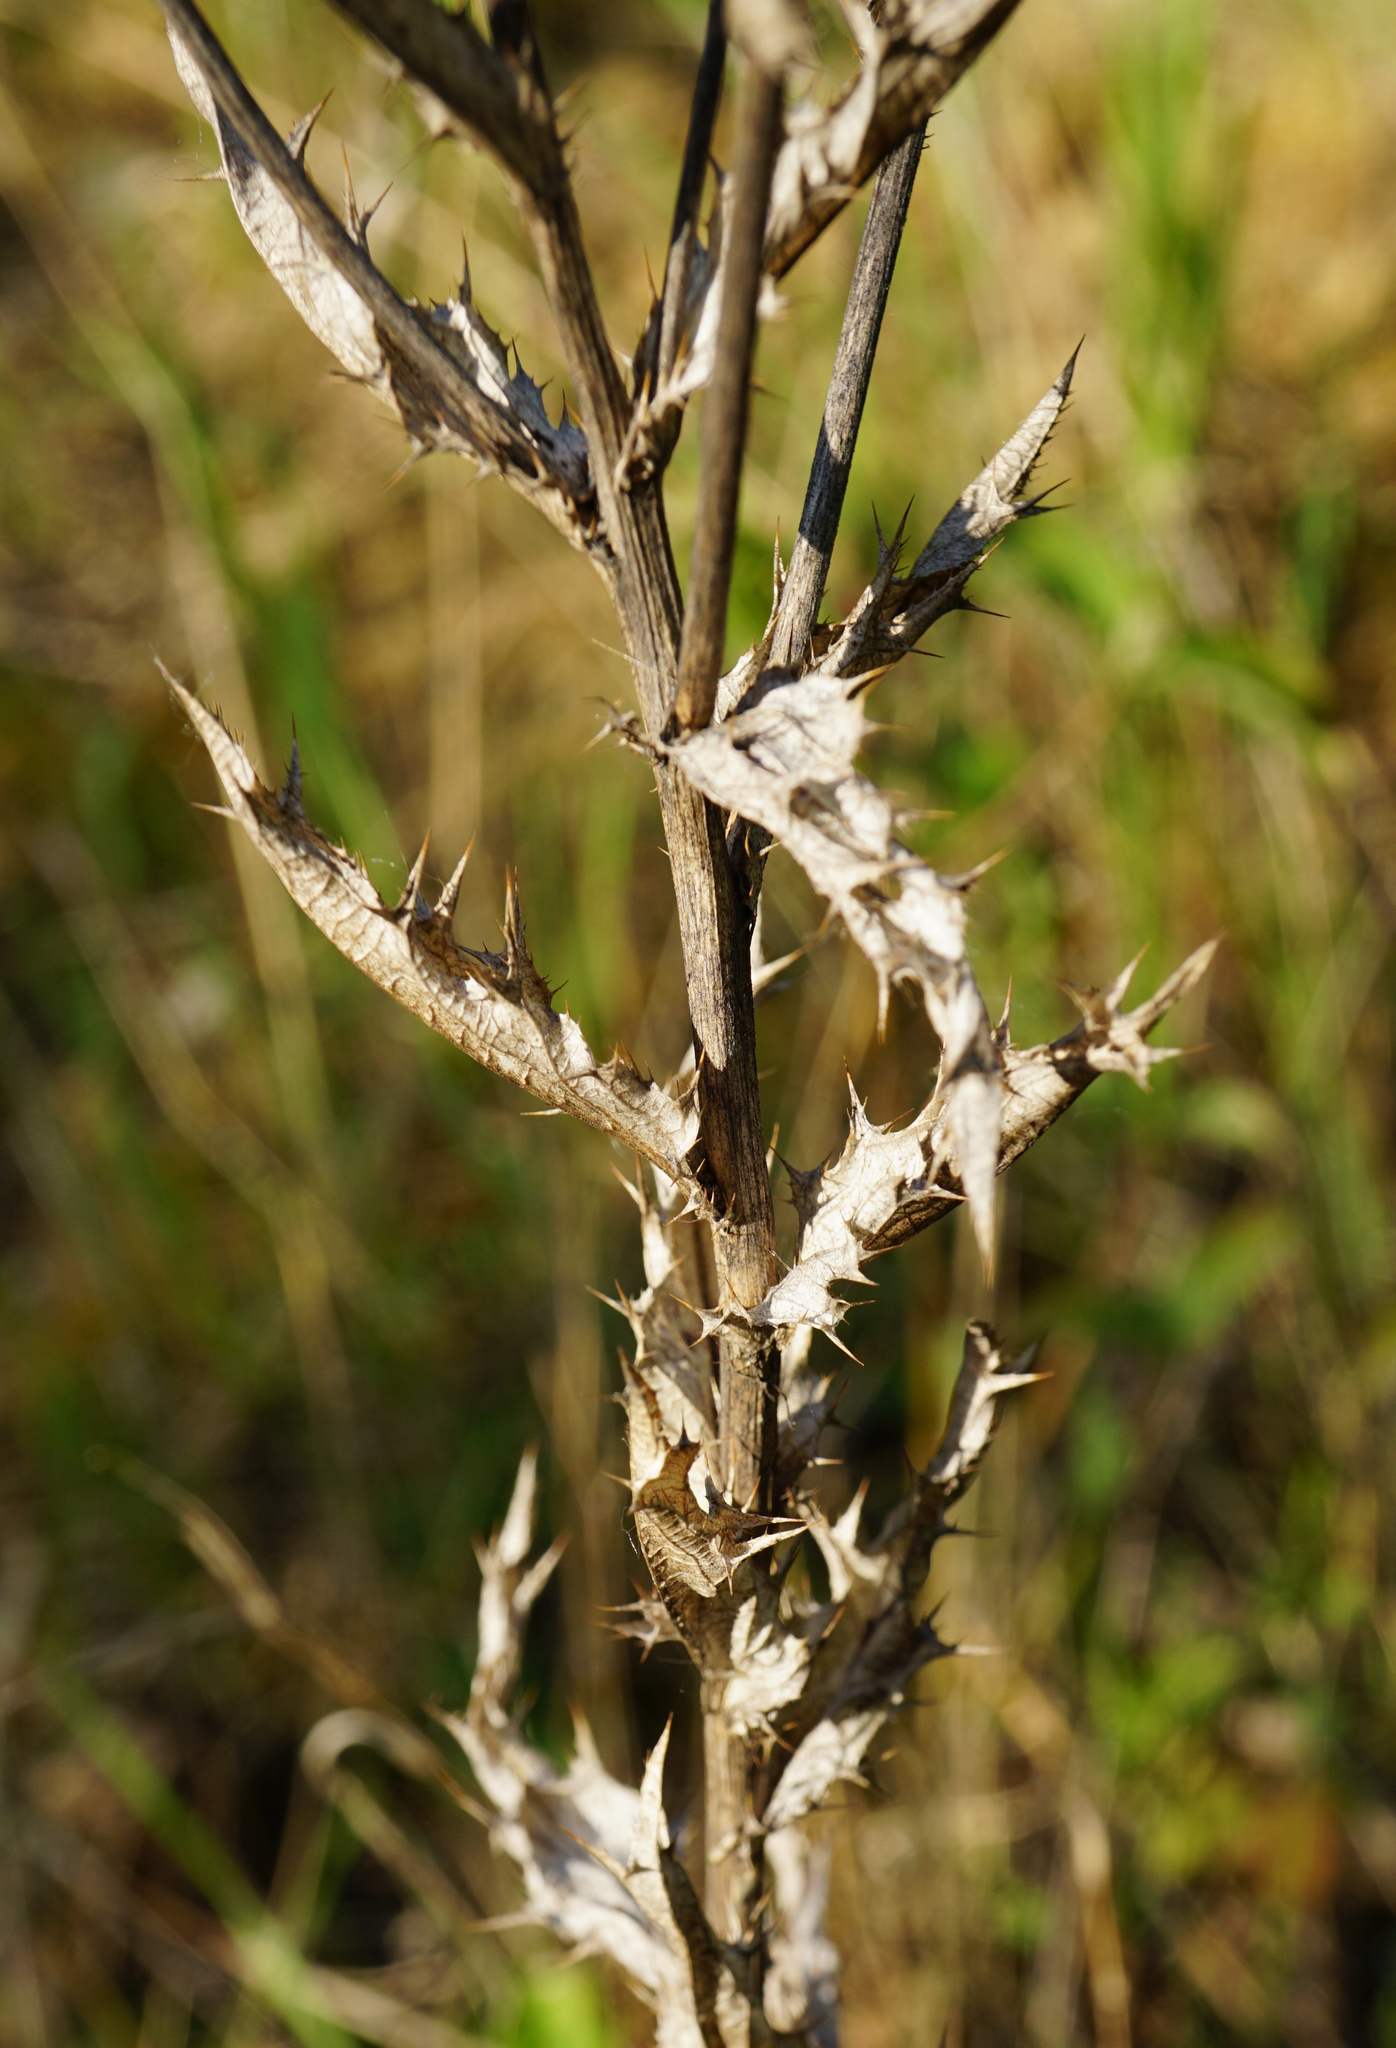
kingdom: Plantae
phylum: Tracheophyta
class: Magnoliopsida
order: Asterales
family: Asteraceae
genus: Carlina
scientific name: Carlina vulgaris
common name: Carline thistle
